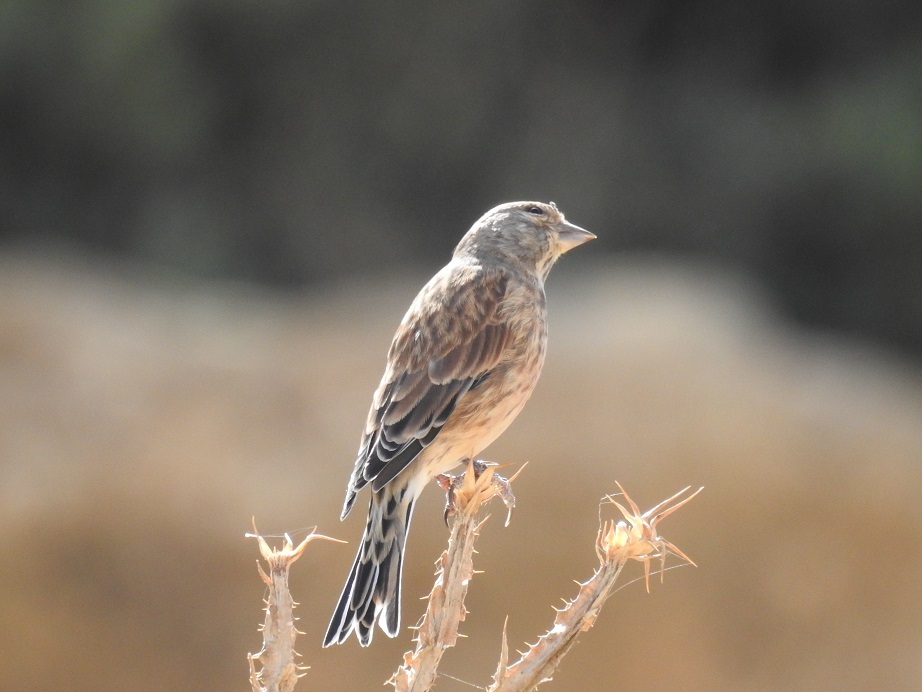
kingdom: Animalia
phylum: Chordata
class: Aves
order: Passeriformes
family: Fringillidae
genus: Linaria
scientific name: Linaria cannabina
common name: Common linnet
